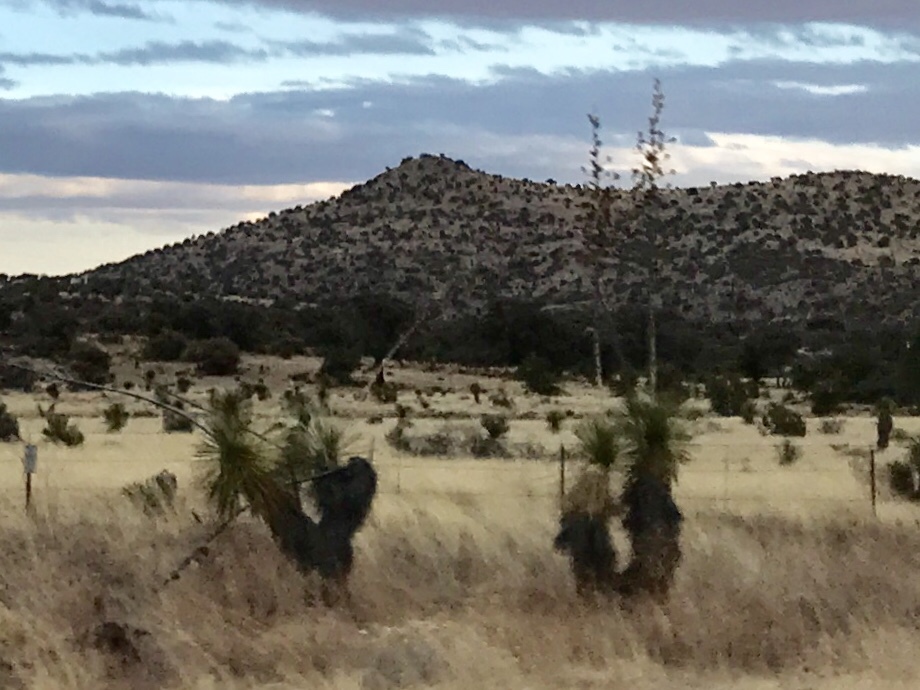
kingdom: Plantae
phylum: Tracheophyta
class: Liliopsida
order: Asparagales
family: Asparagaceae
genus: Yucca
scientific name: Yucca elata
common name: Palmella
